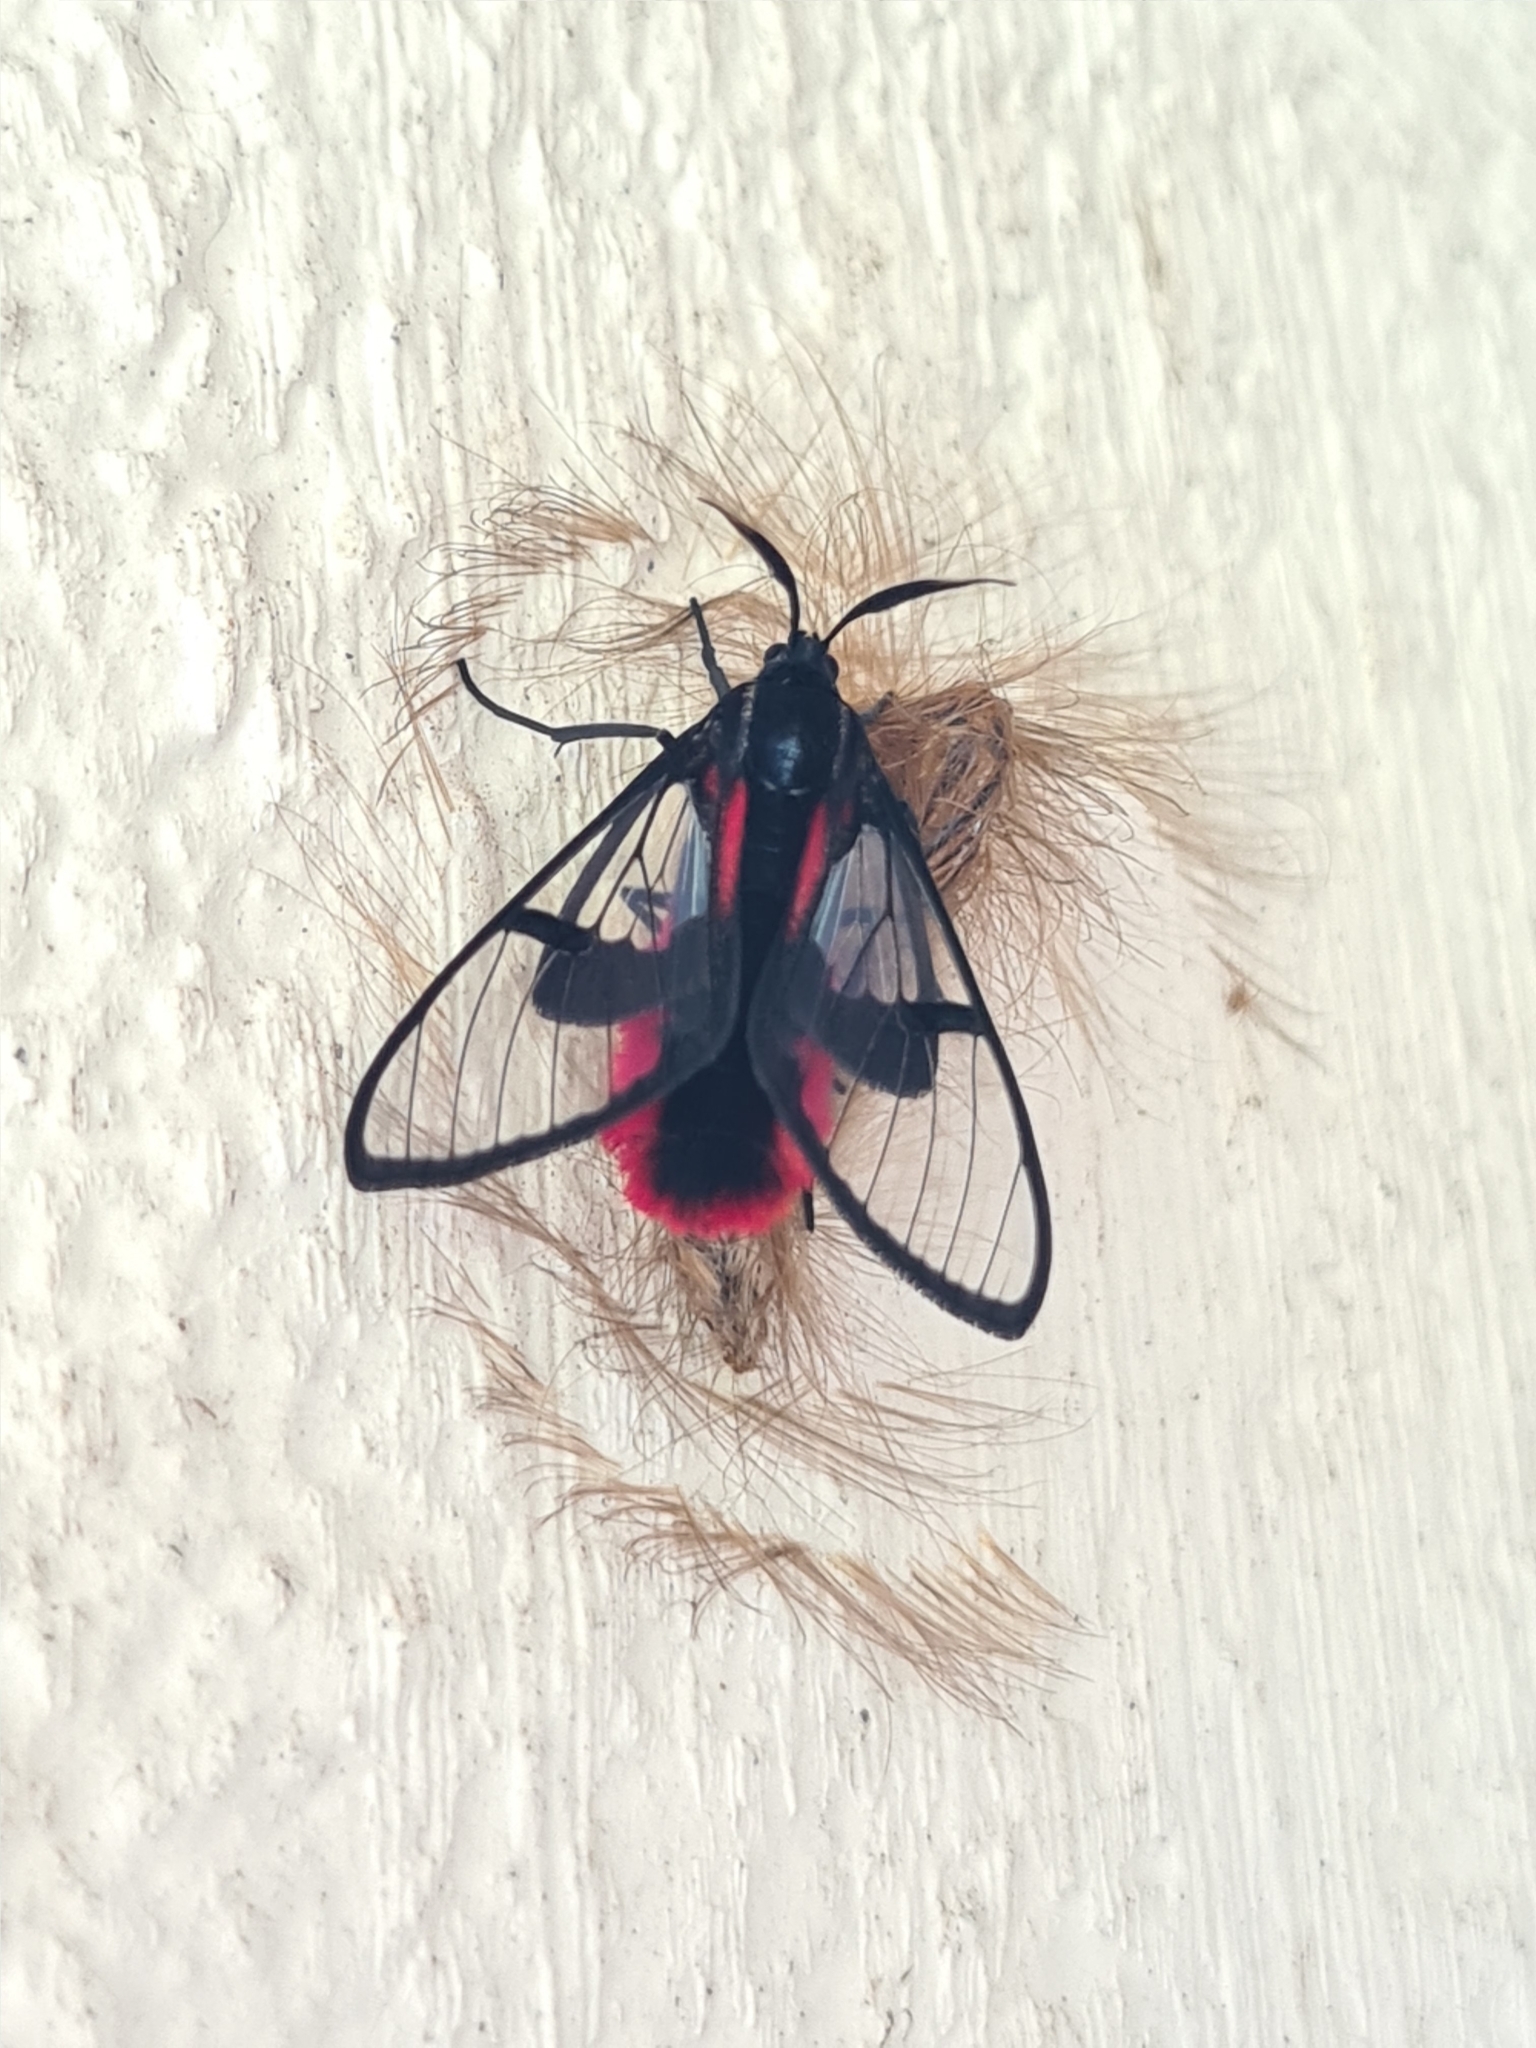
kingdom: Animalia
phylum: Arthropoda
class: Insecta
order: Lepidoptera
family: Erebidae
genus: Dinia
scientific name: Dinia eagrus
